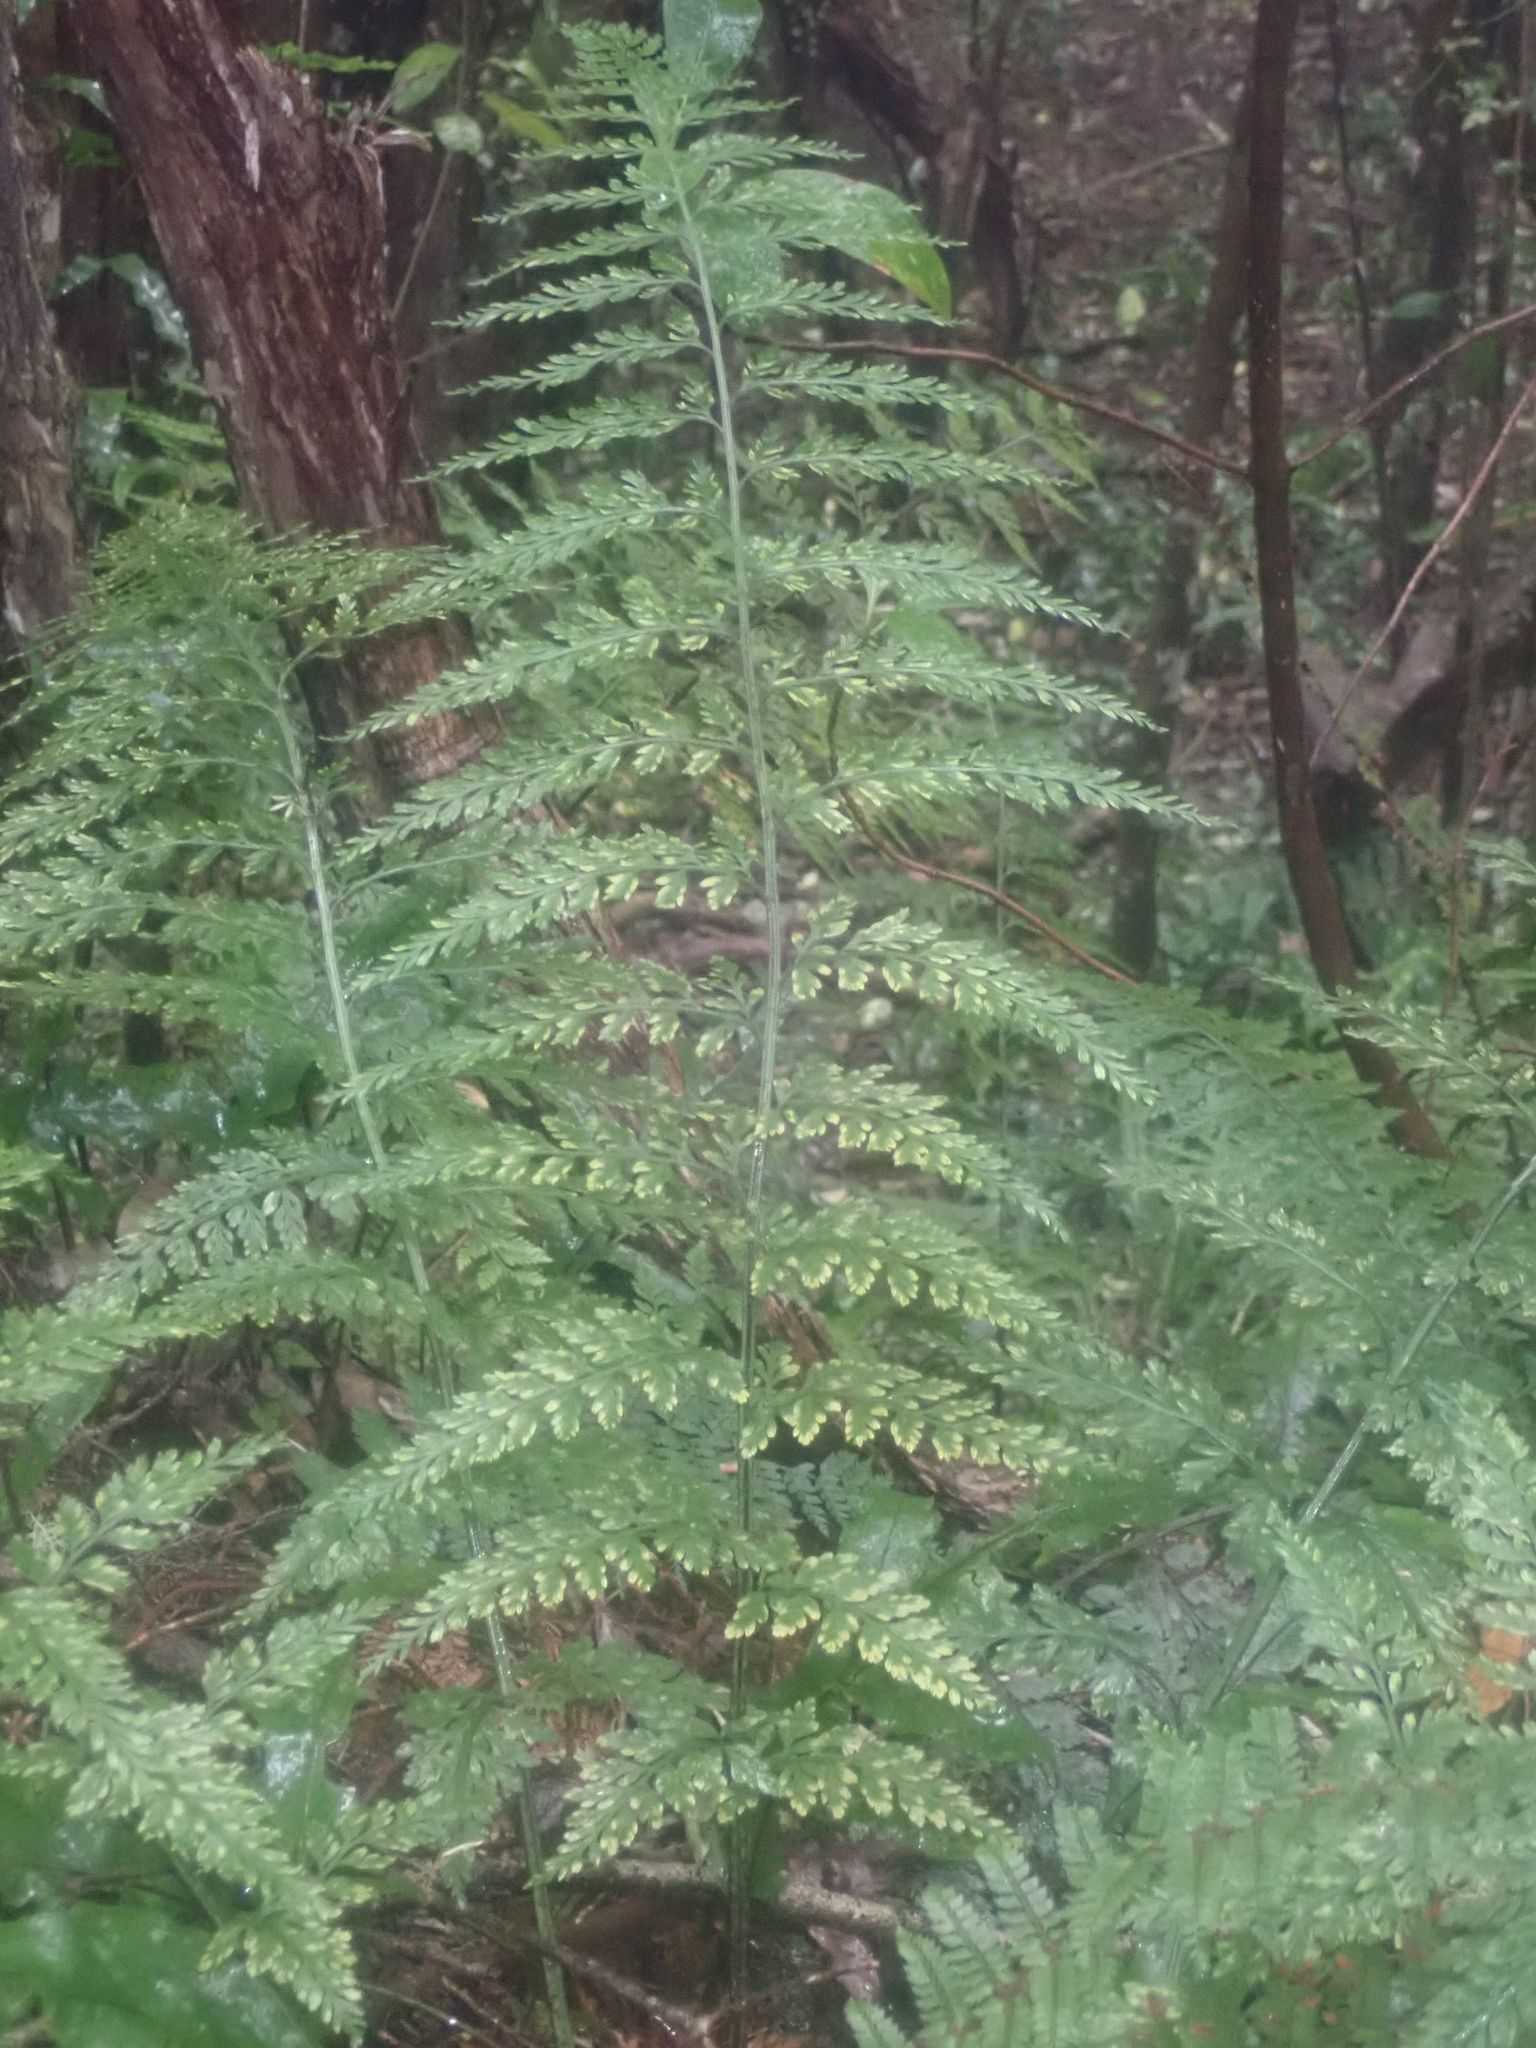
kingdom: Plantae
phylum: Tracheophyta
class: Polypodiopsida
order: Polypodiales
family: Aspleniaceae
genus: Asplenium
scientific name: Asplenium
